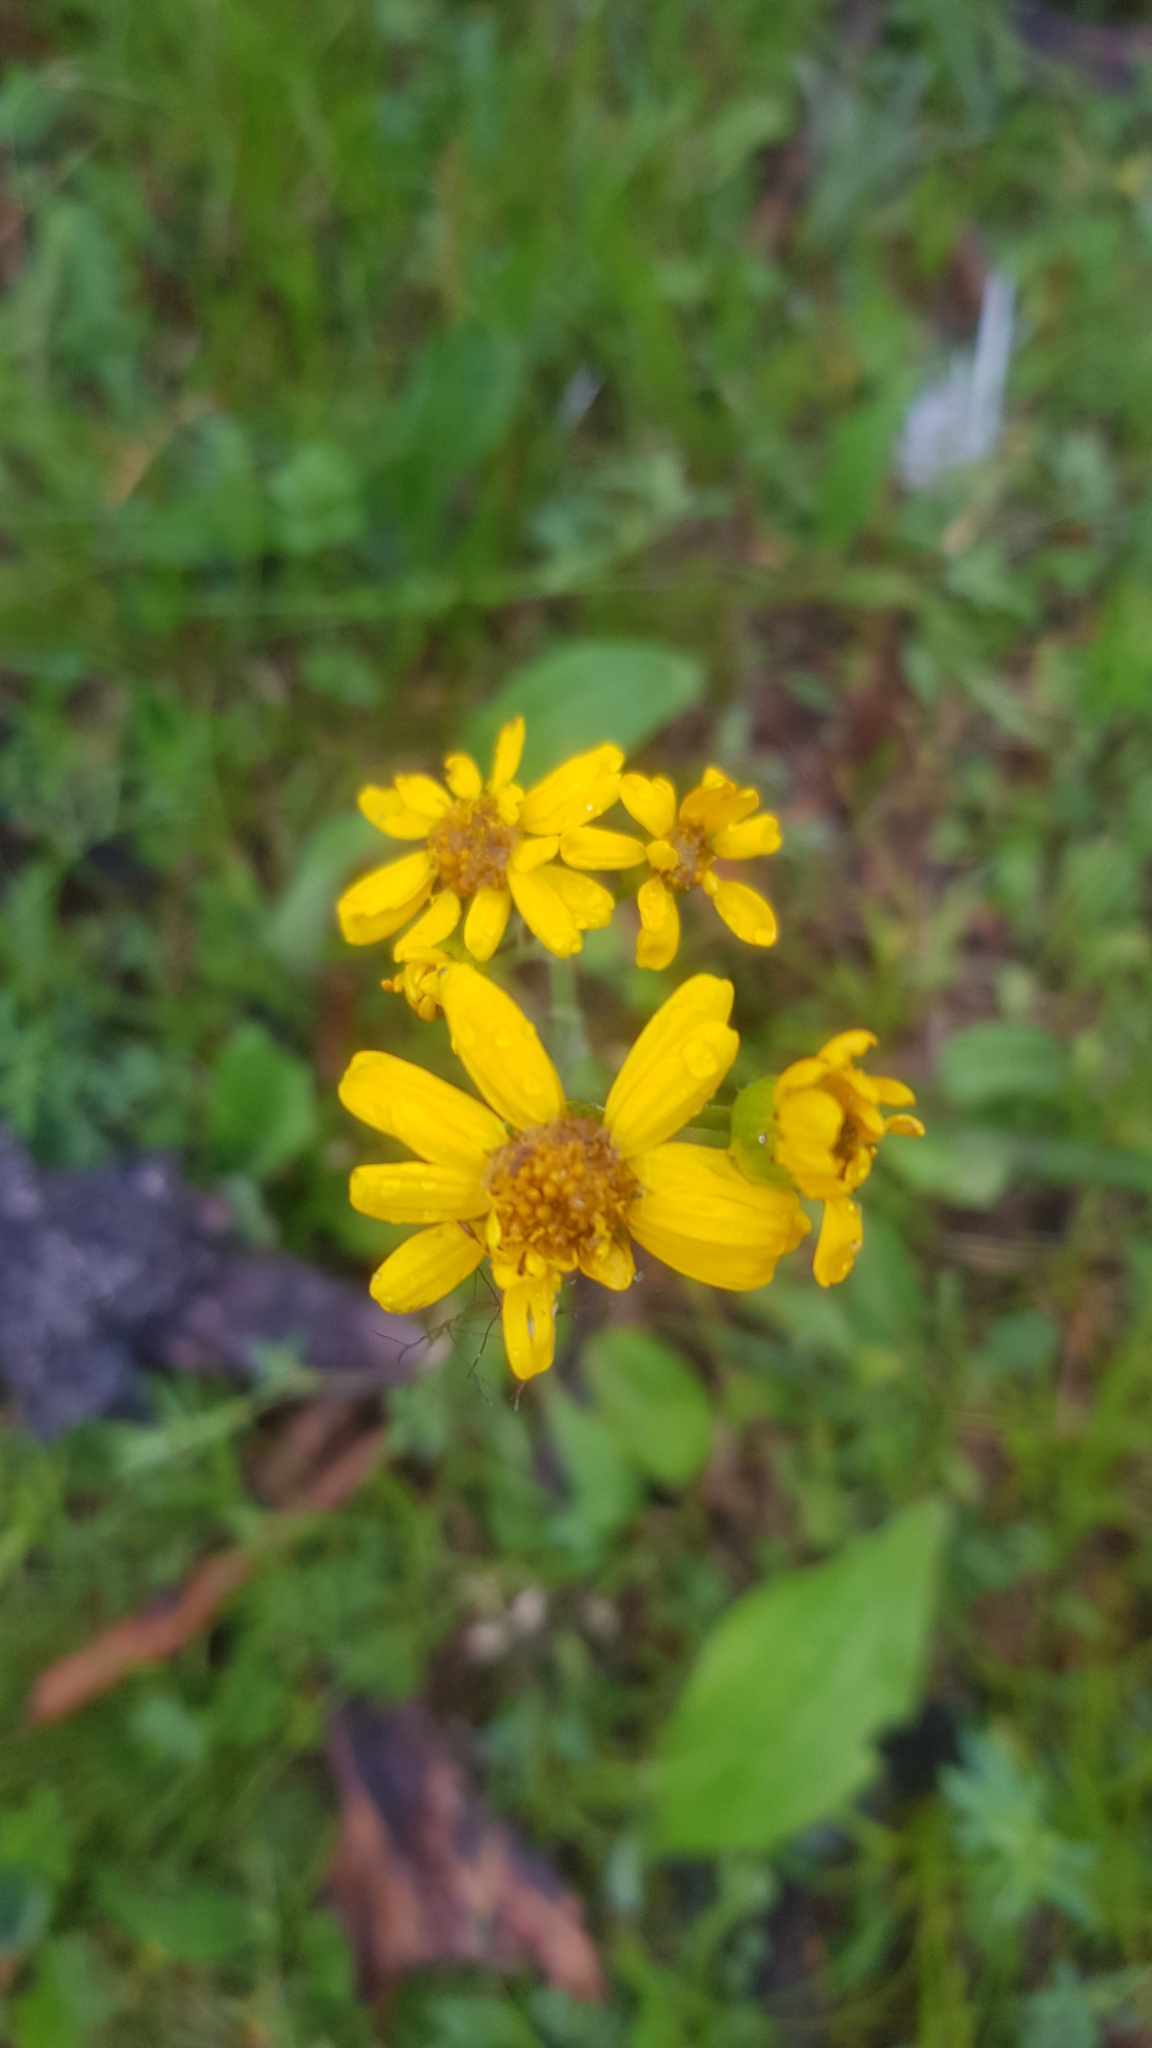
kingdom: Plantae
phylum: Tracheophyta
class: Magnoliopsida
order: Asterales
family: Asteraceae
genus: Tephroseris
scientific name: Tephroseris integrifolia
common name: Field fleawort
